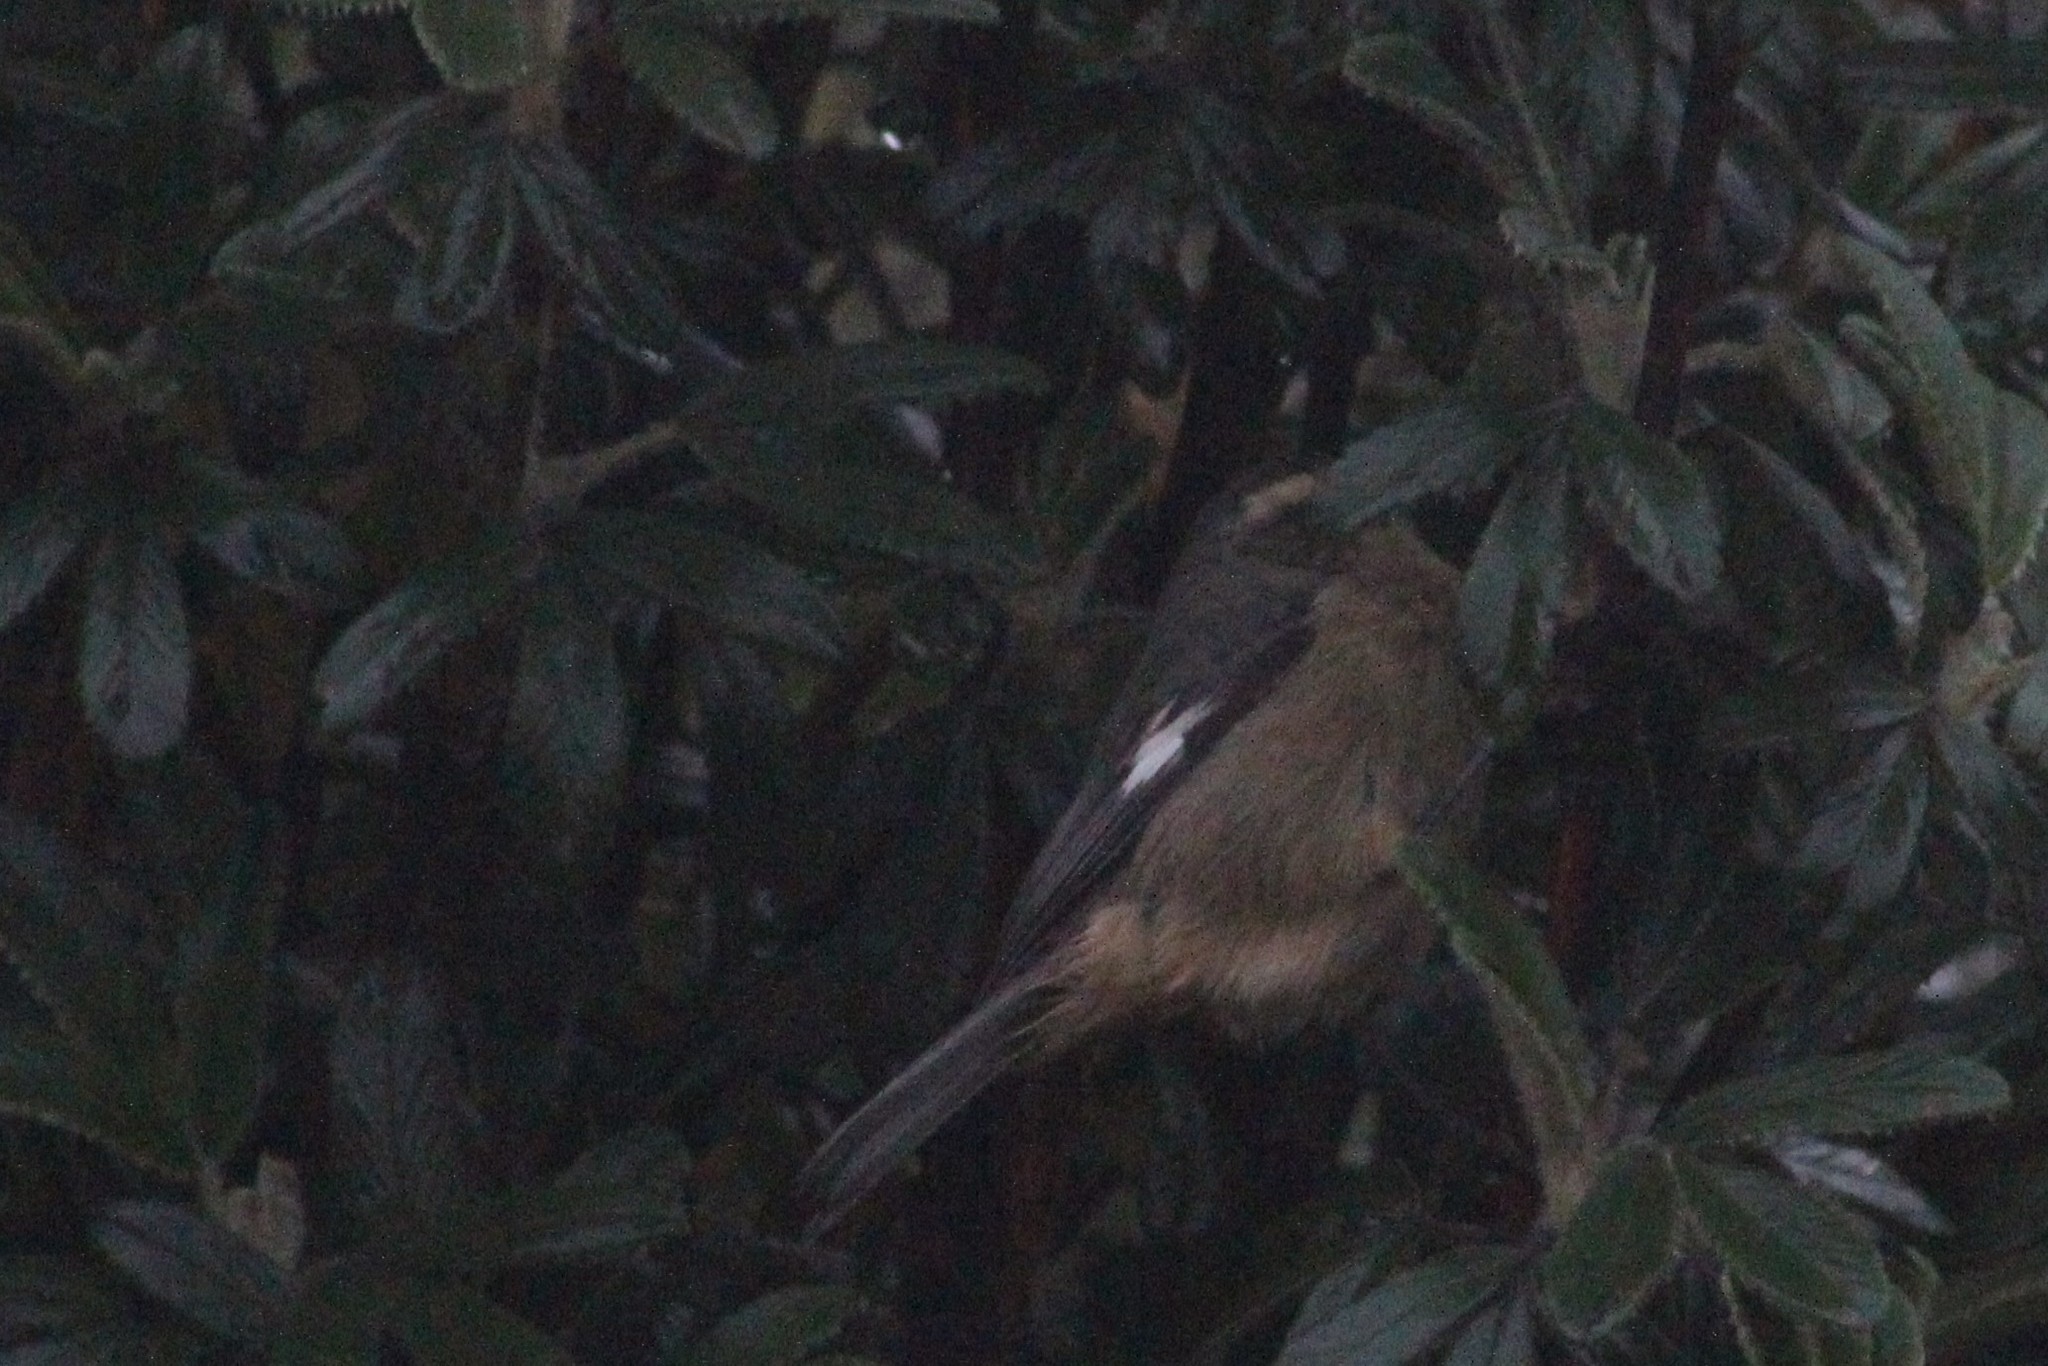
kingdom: Animalia
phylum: Chordata
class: Aves
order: Passeriformes
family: Thraupidae
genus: Conirostrum
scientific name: Conirostrum cinereum
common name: Cinereous conebill
